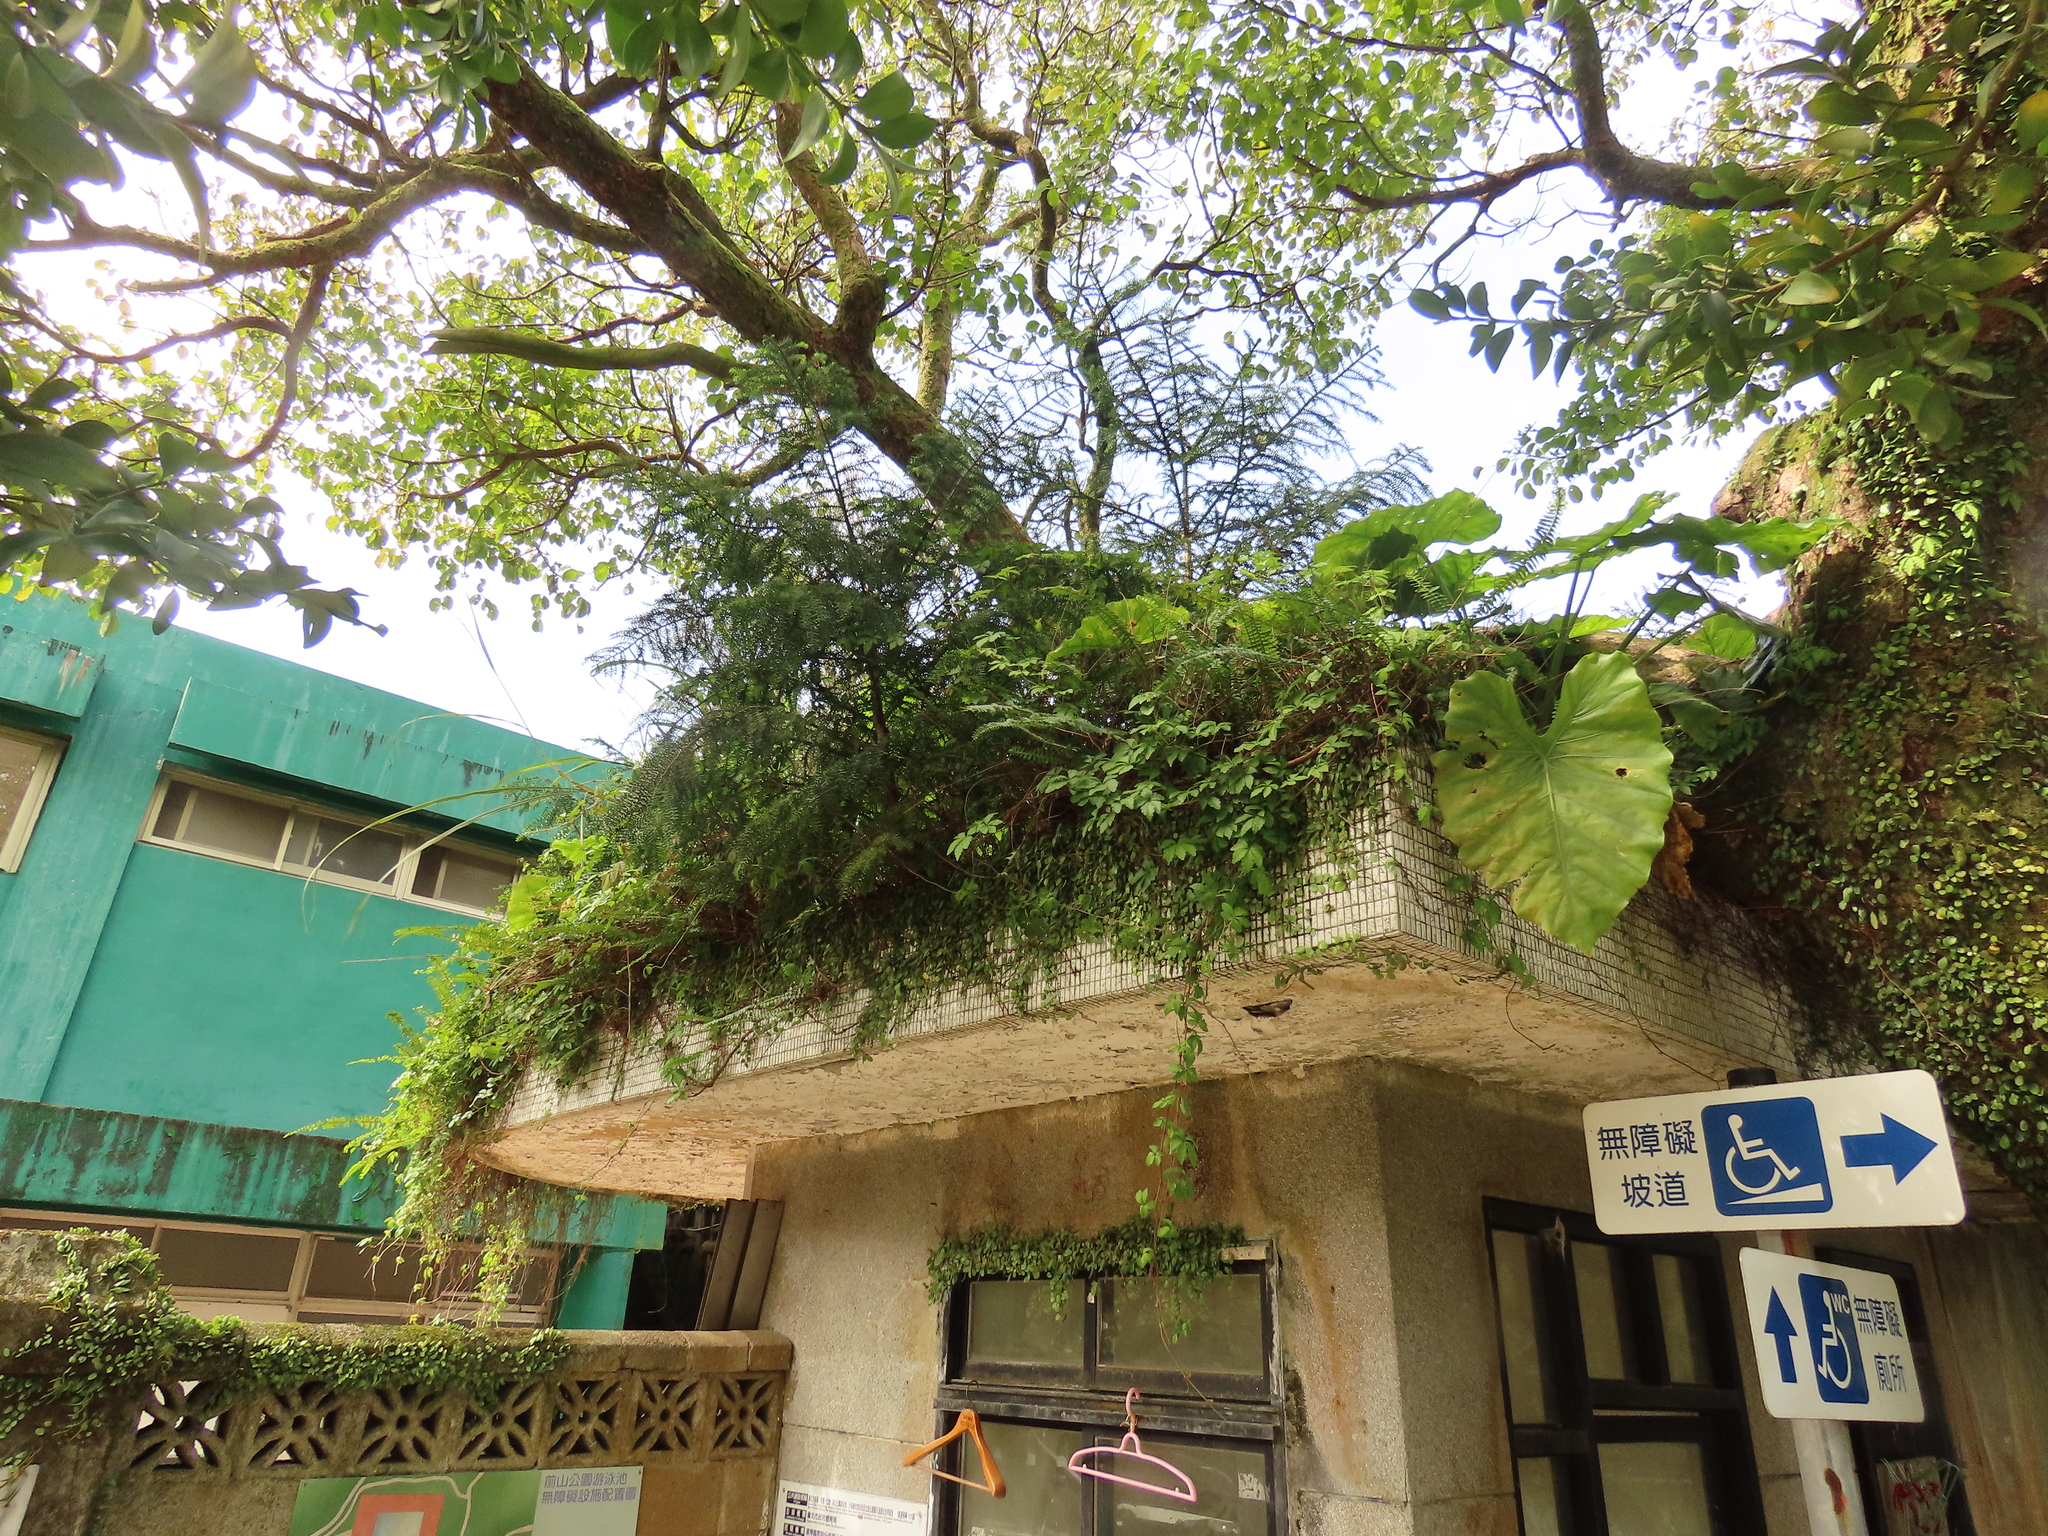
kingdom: Plantae
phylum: Tracheophyta
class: Pinopsida
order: Pinales
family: Araucariaceae
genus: Araucaria
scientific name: Araucaria cunninghamii
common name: Colonial pine
